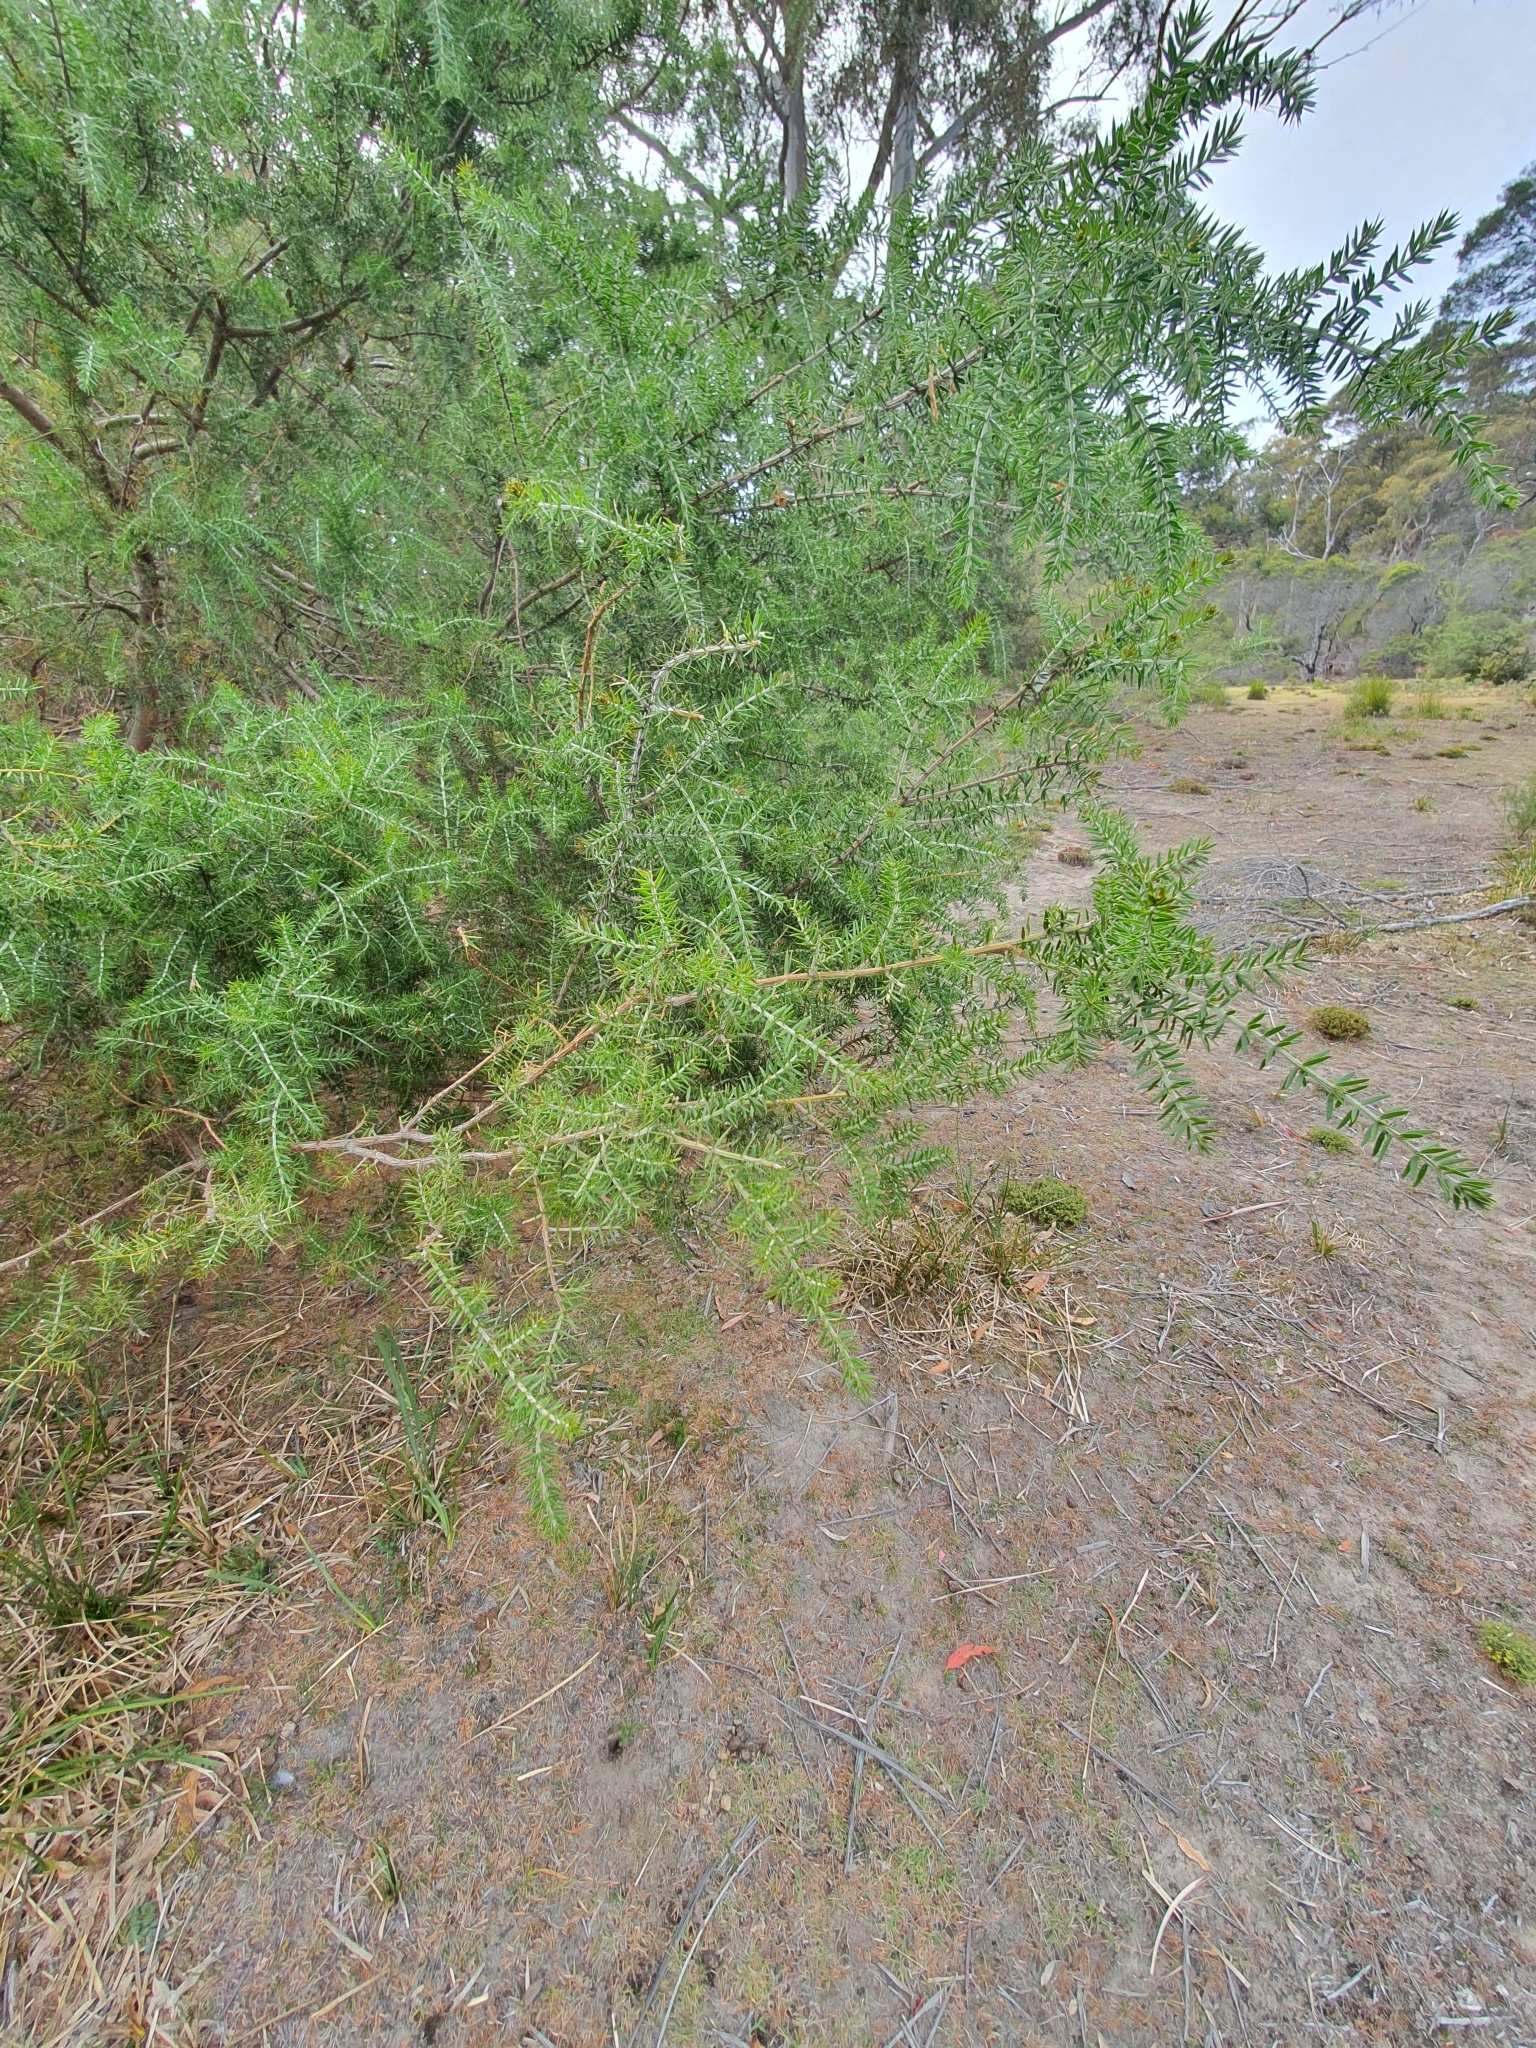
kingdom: Plantae
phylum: Tracheophyta
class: Magnoliopsida
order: Fabales
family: Fabaceae
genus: Acacia
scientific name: Acacia verticillata
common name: Prickly moses
